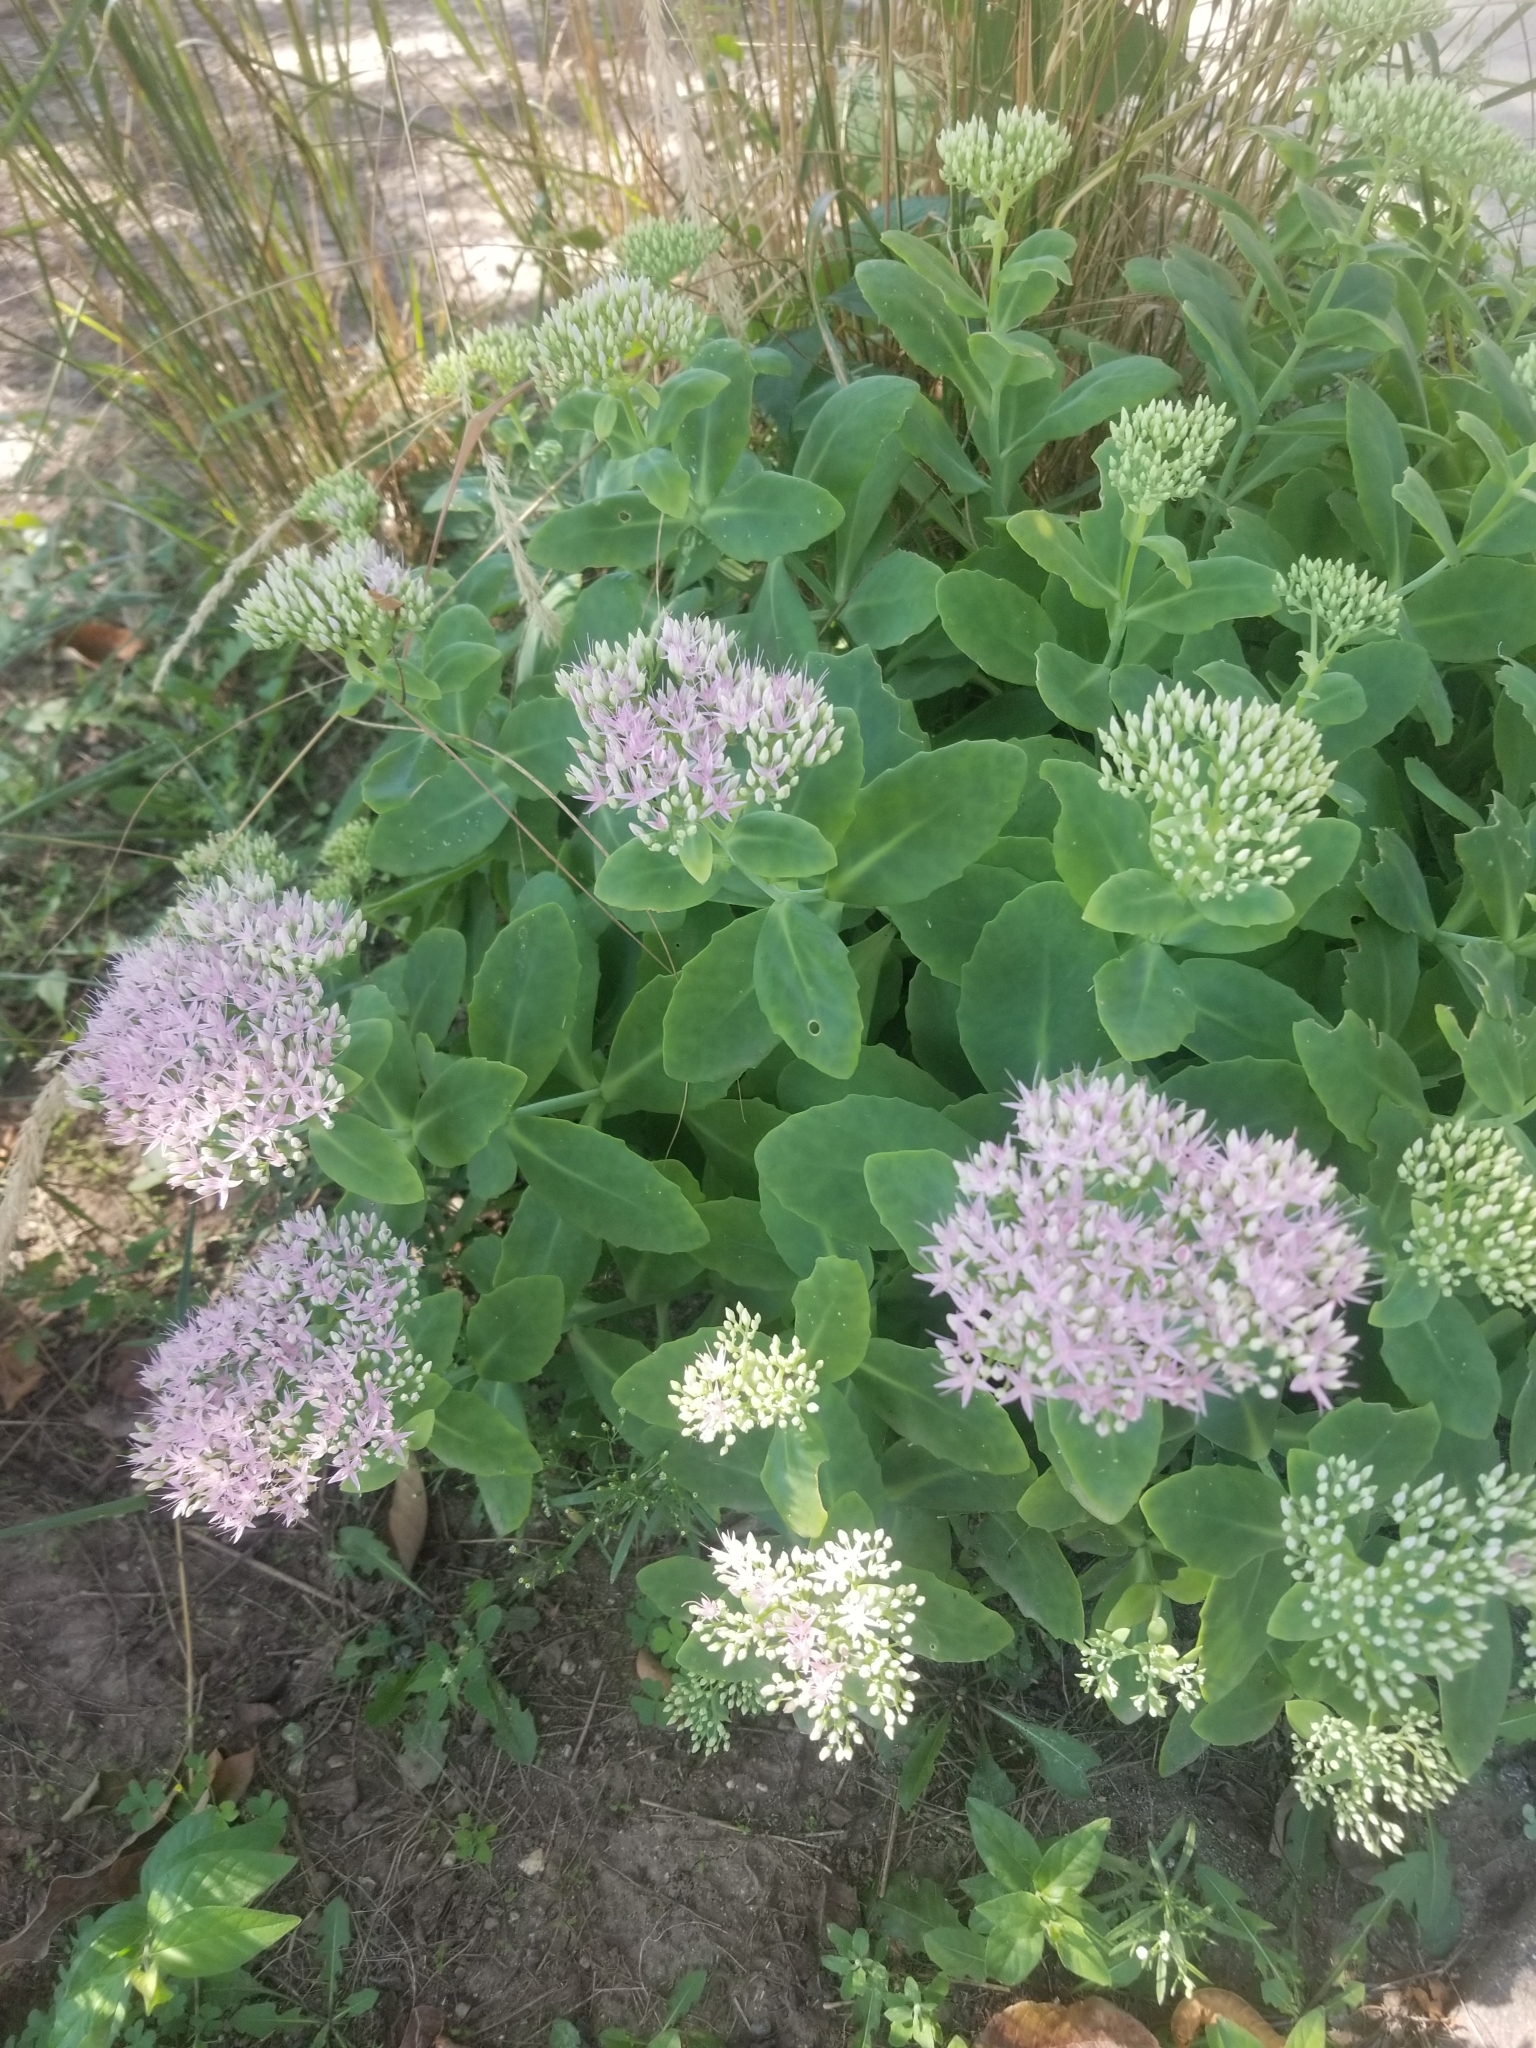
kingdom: Plantae
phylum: Tracheophyta
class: Magnoliopsida
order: Saxifragales
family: Crassulaceae
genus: Hylotelephium
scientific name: Hylotelephium spectabile
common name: Showy stonecrop
